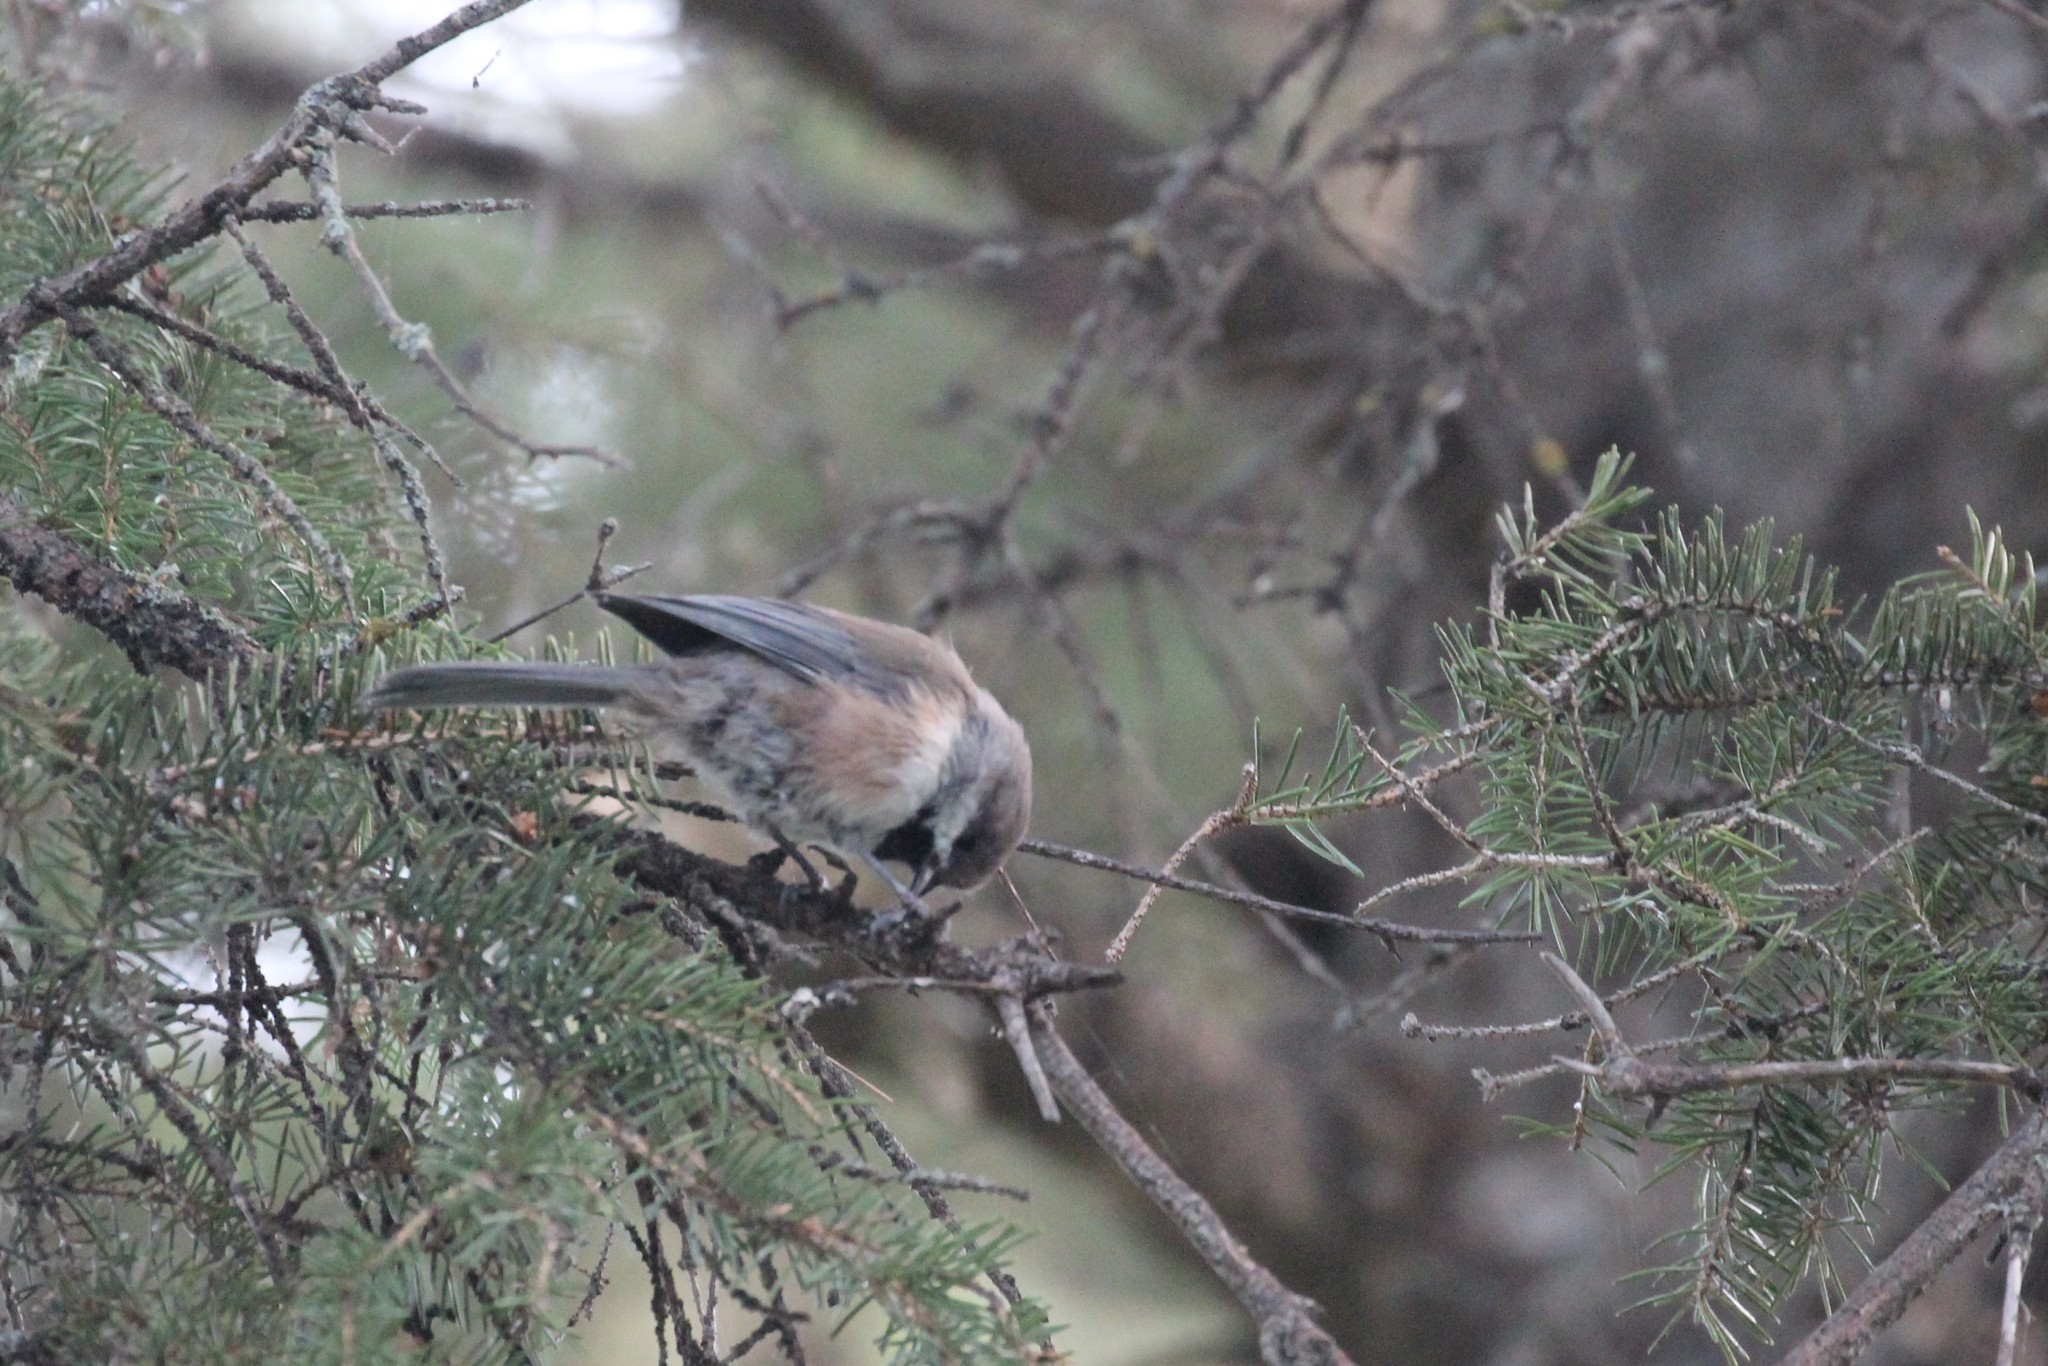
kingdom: Animalia
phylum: Chordata
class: Aves
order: Passeriformes
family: Paridae
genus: Poecile
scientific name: Poecile hudsonicus
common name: Boreal chickadee
